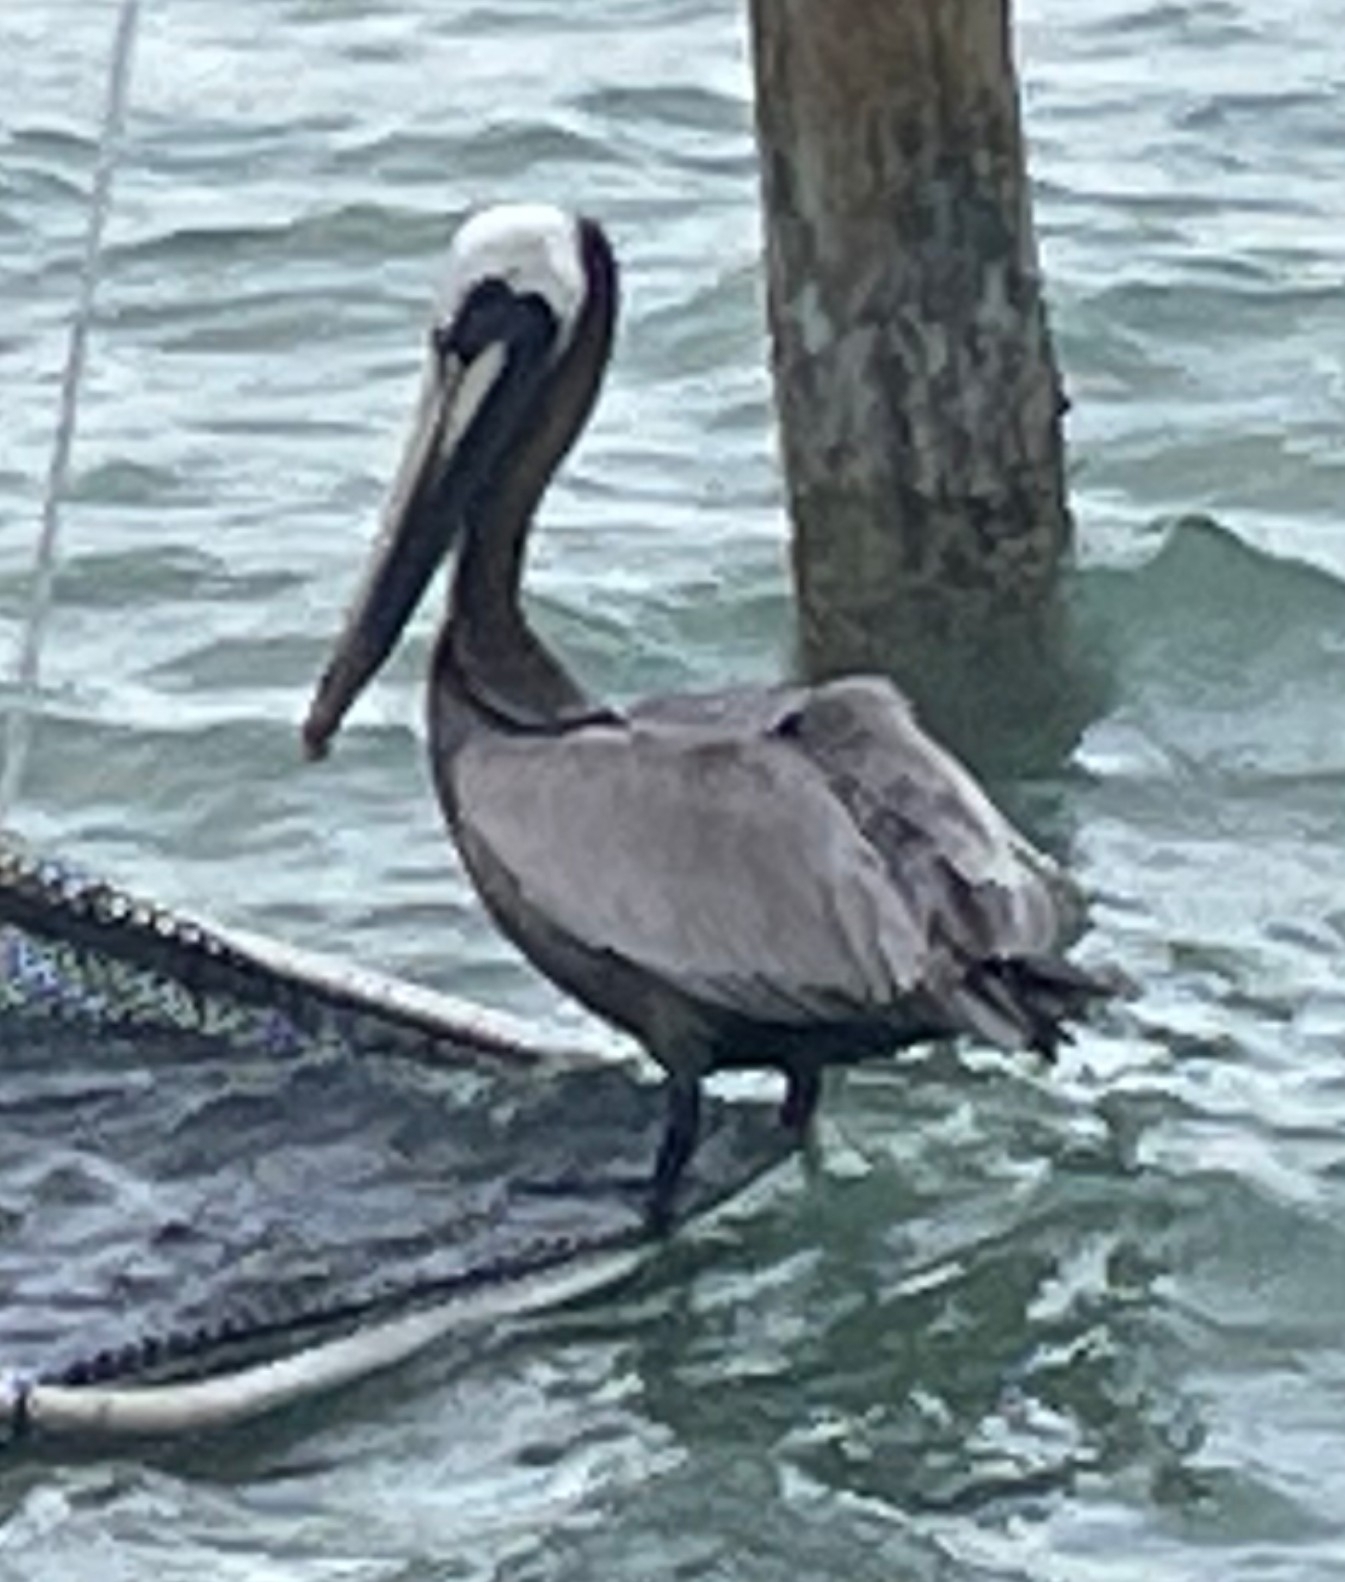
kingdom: Animalia
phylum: Chordata
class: Aves
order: Pelecaniformes
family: Pelecanidae
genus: Pelecanus
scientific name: Pelecanus occidentalis
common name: Brown pelican
